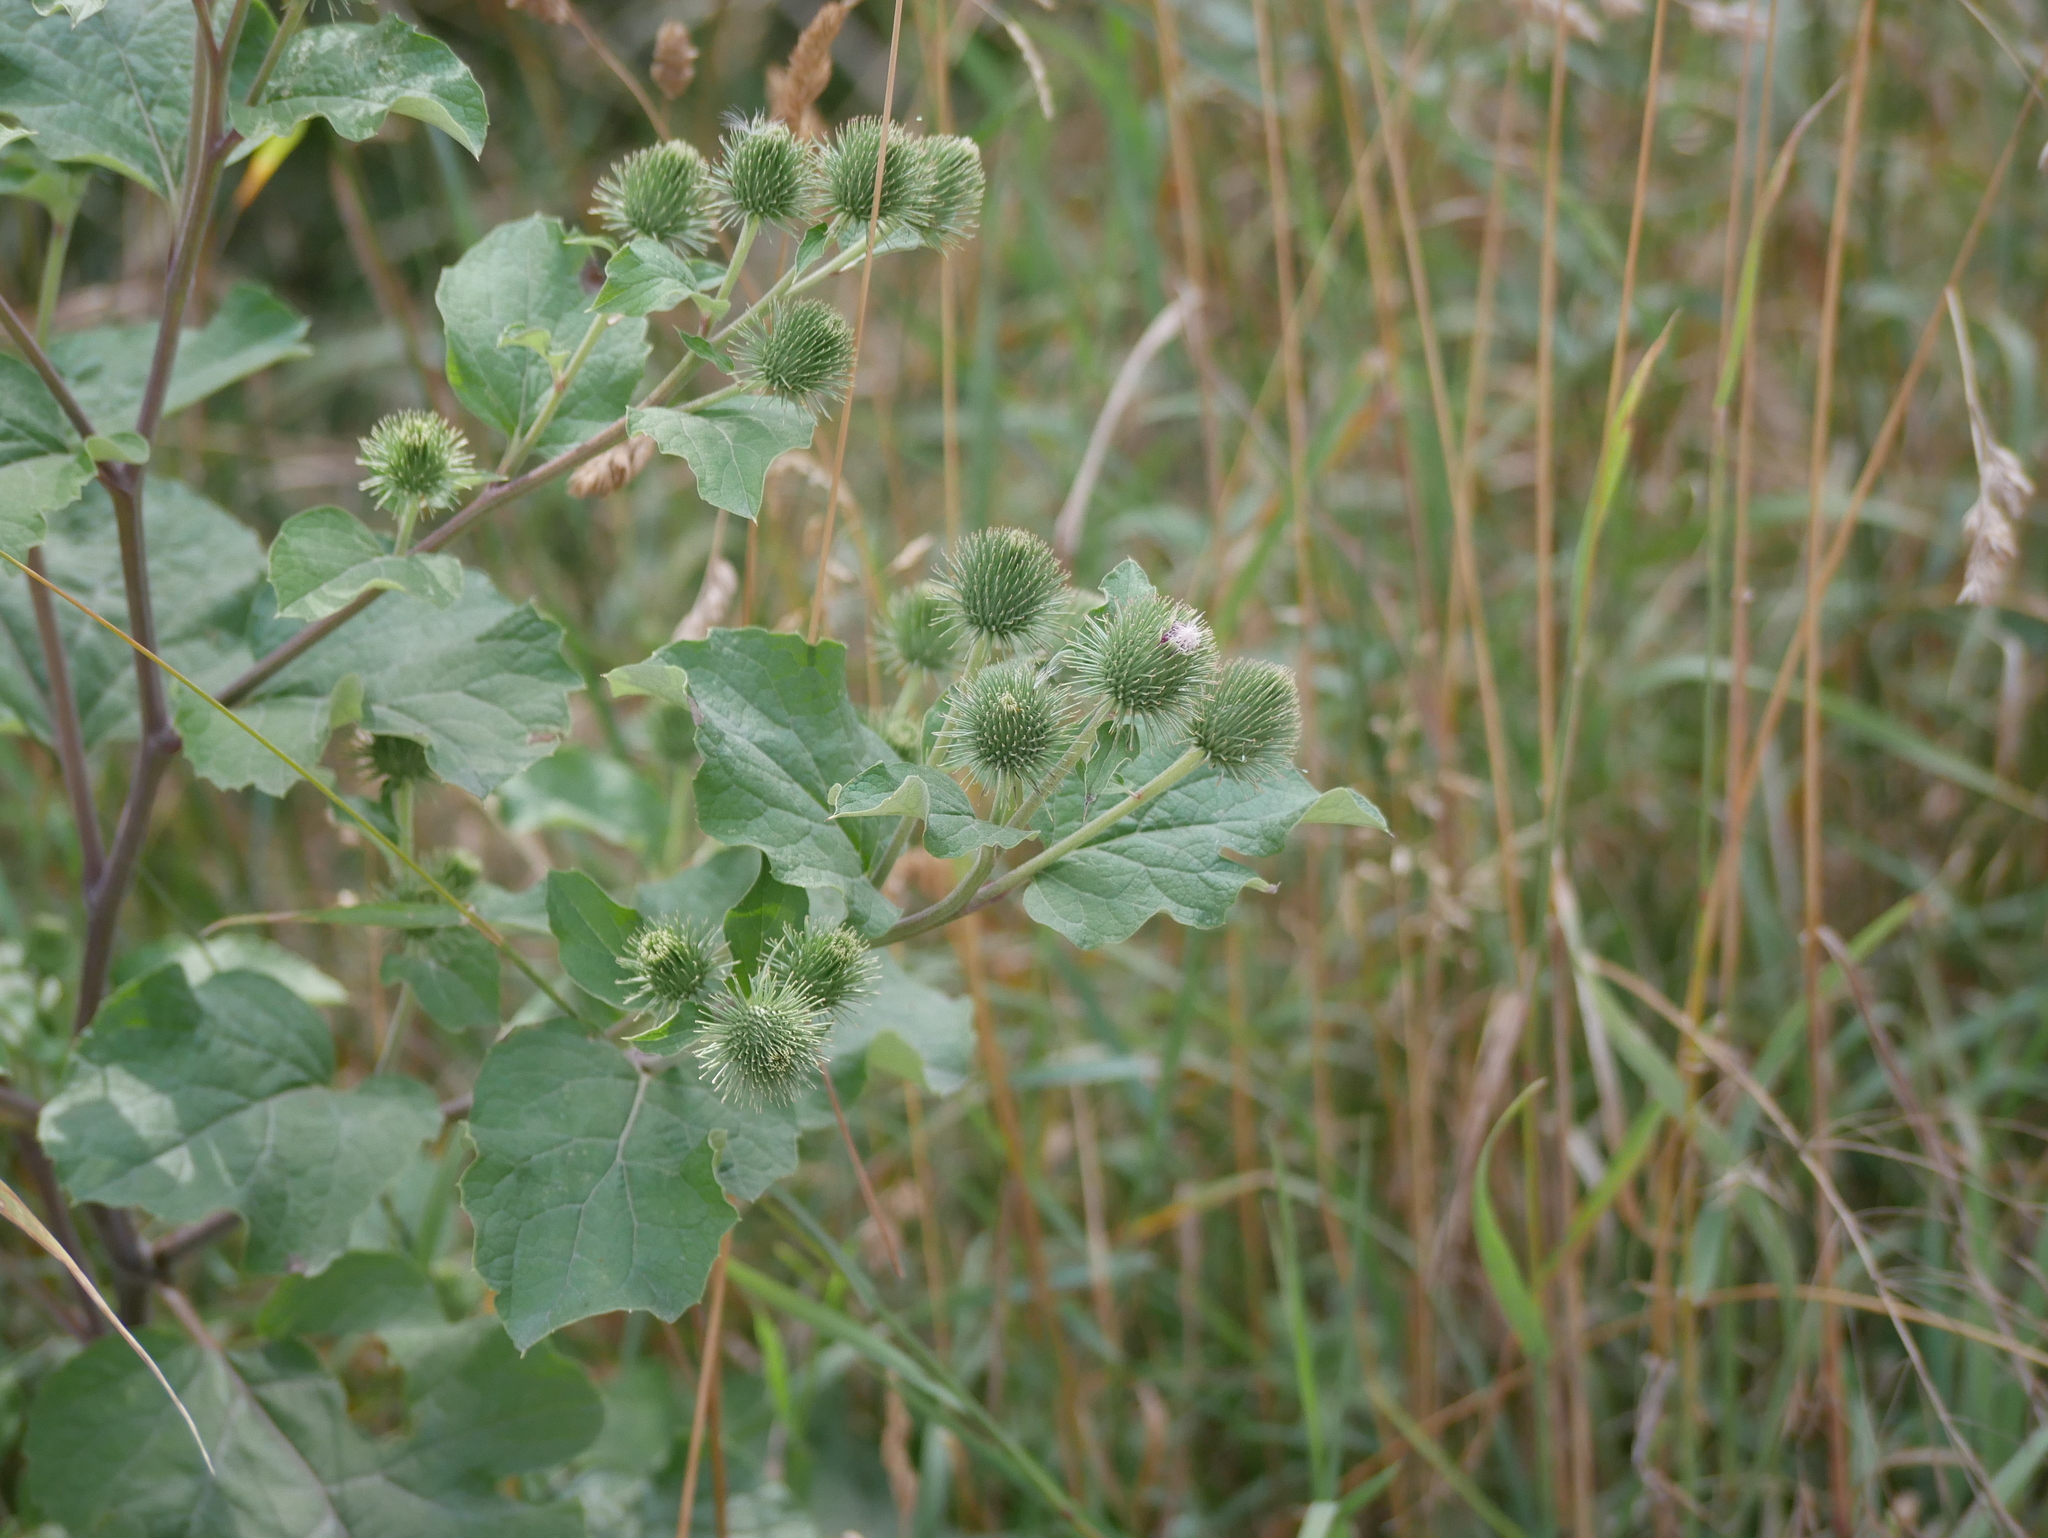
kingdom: Plantae
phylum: Tracheophyta
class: Magnoliopsida
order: Asterales
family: Asteraceae
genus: Arctium
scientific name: Arctium lappa
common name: Greater burdock
